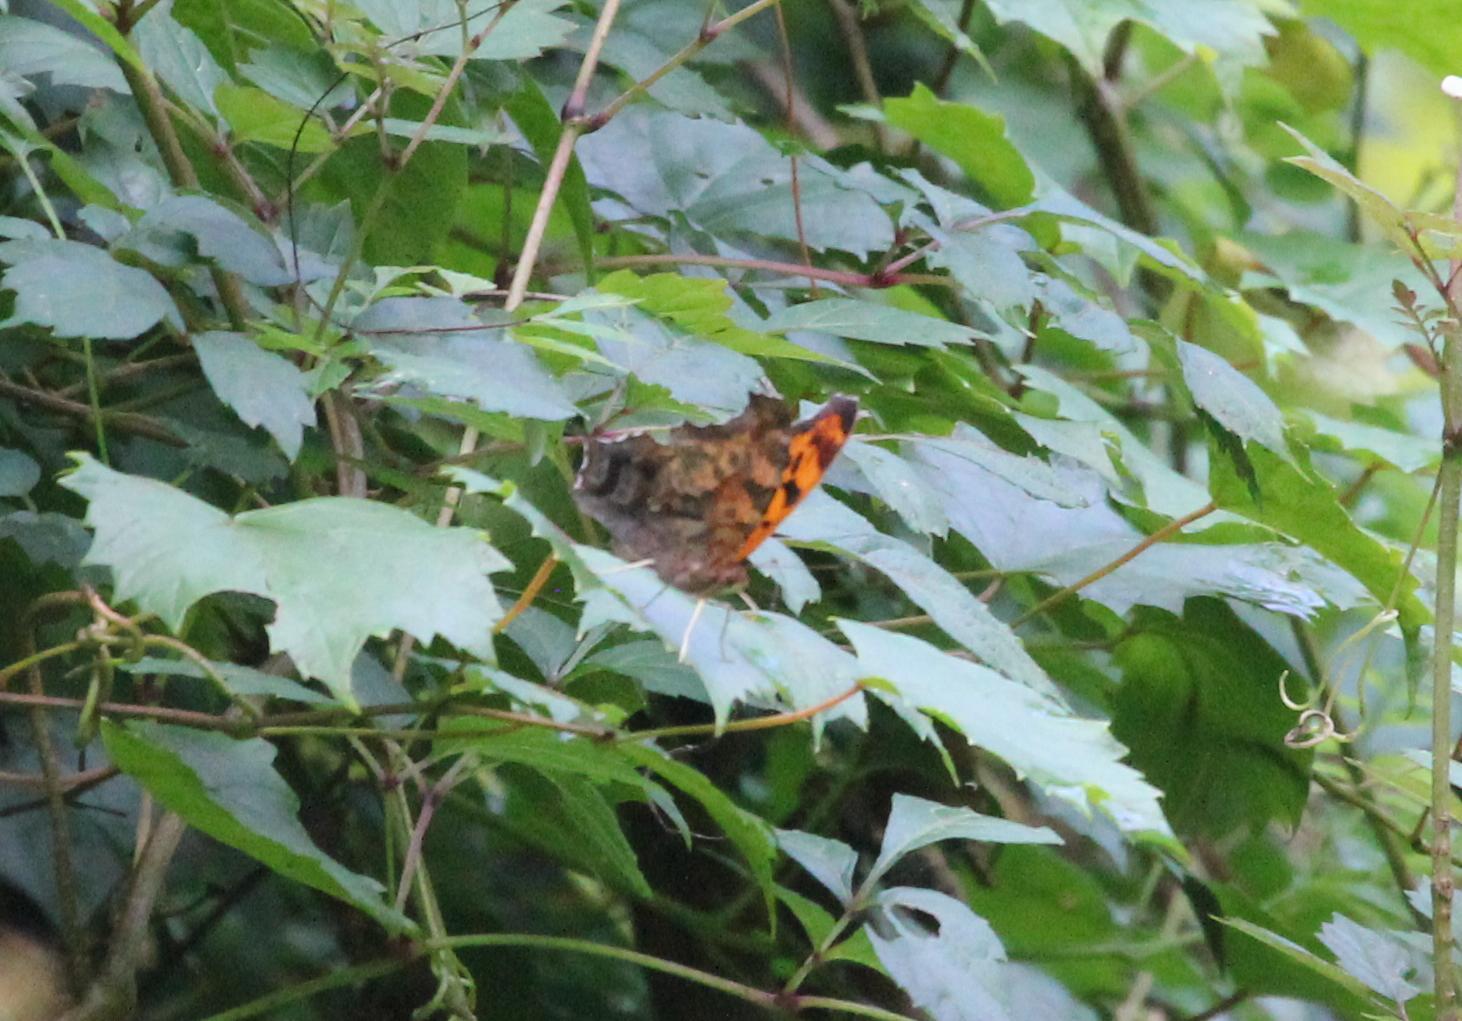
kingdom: Animalia
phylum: Arthropoda
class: Insecta
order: Lepidoptera
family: Nymphalidae
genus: Polygonia
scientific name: Polygonia interrogationis
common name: Question mark
